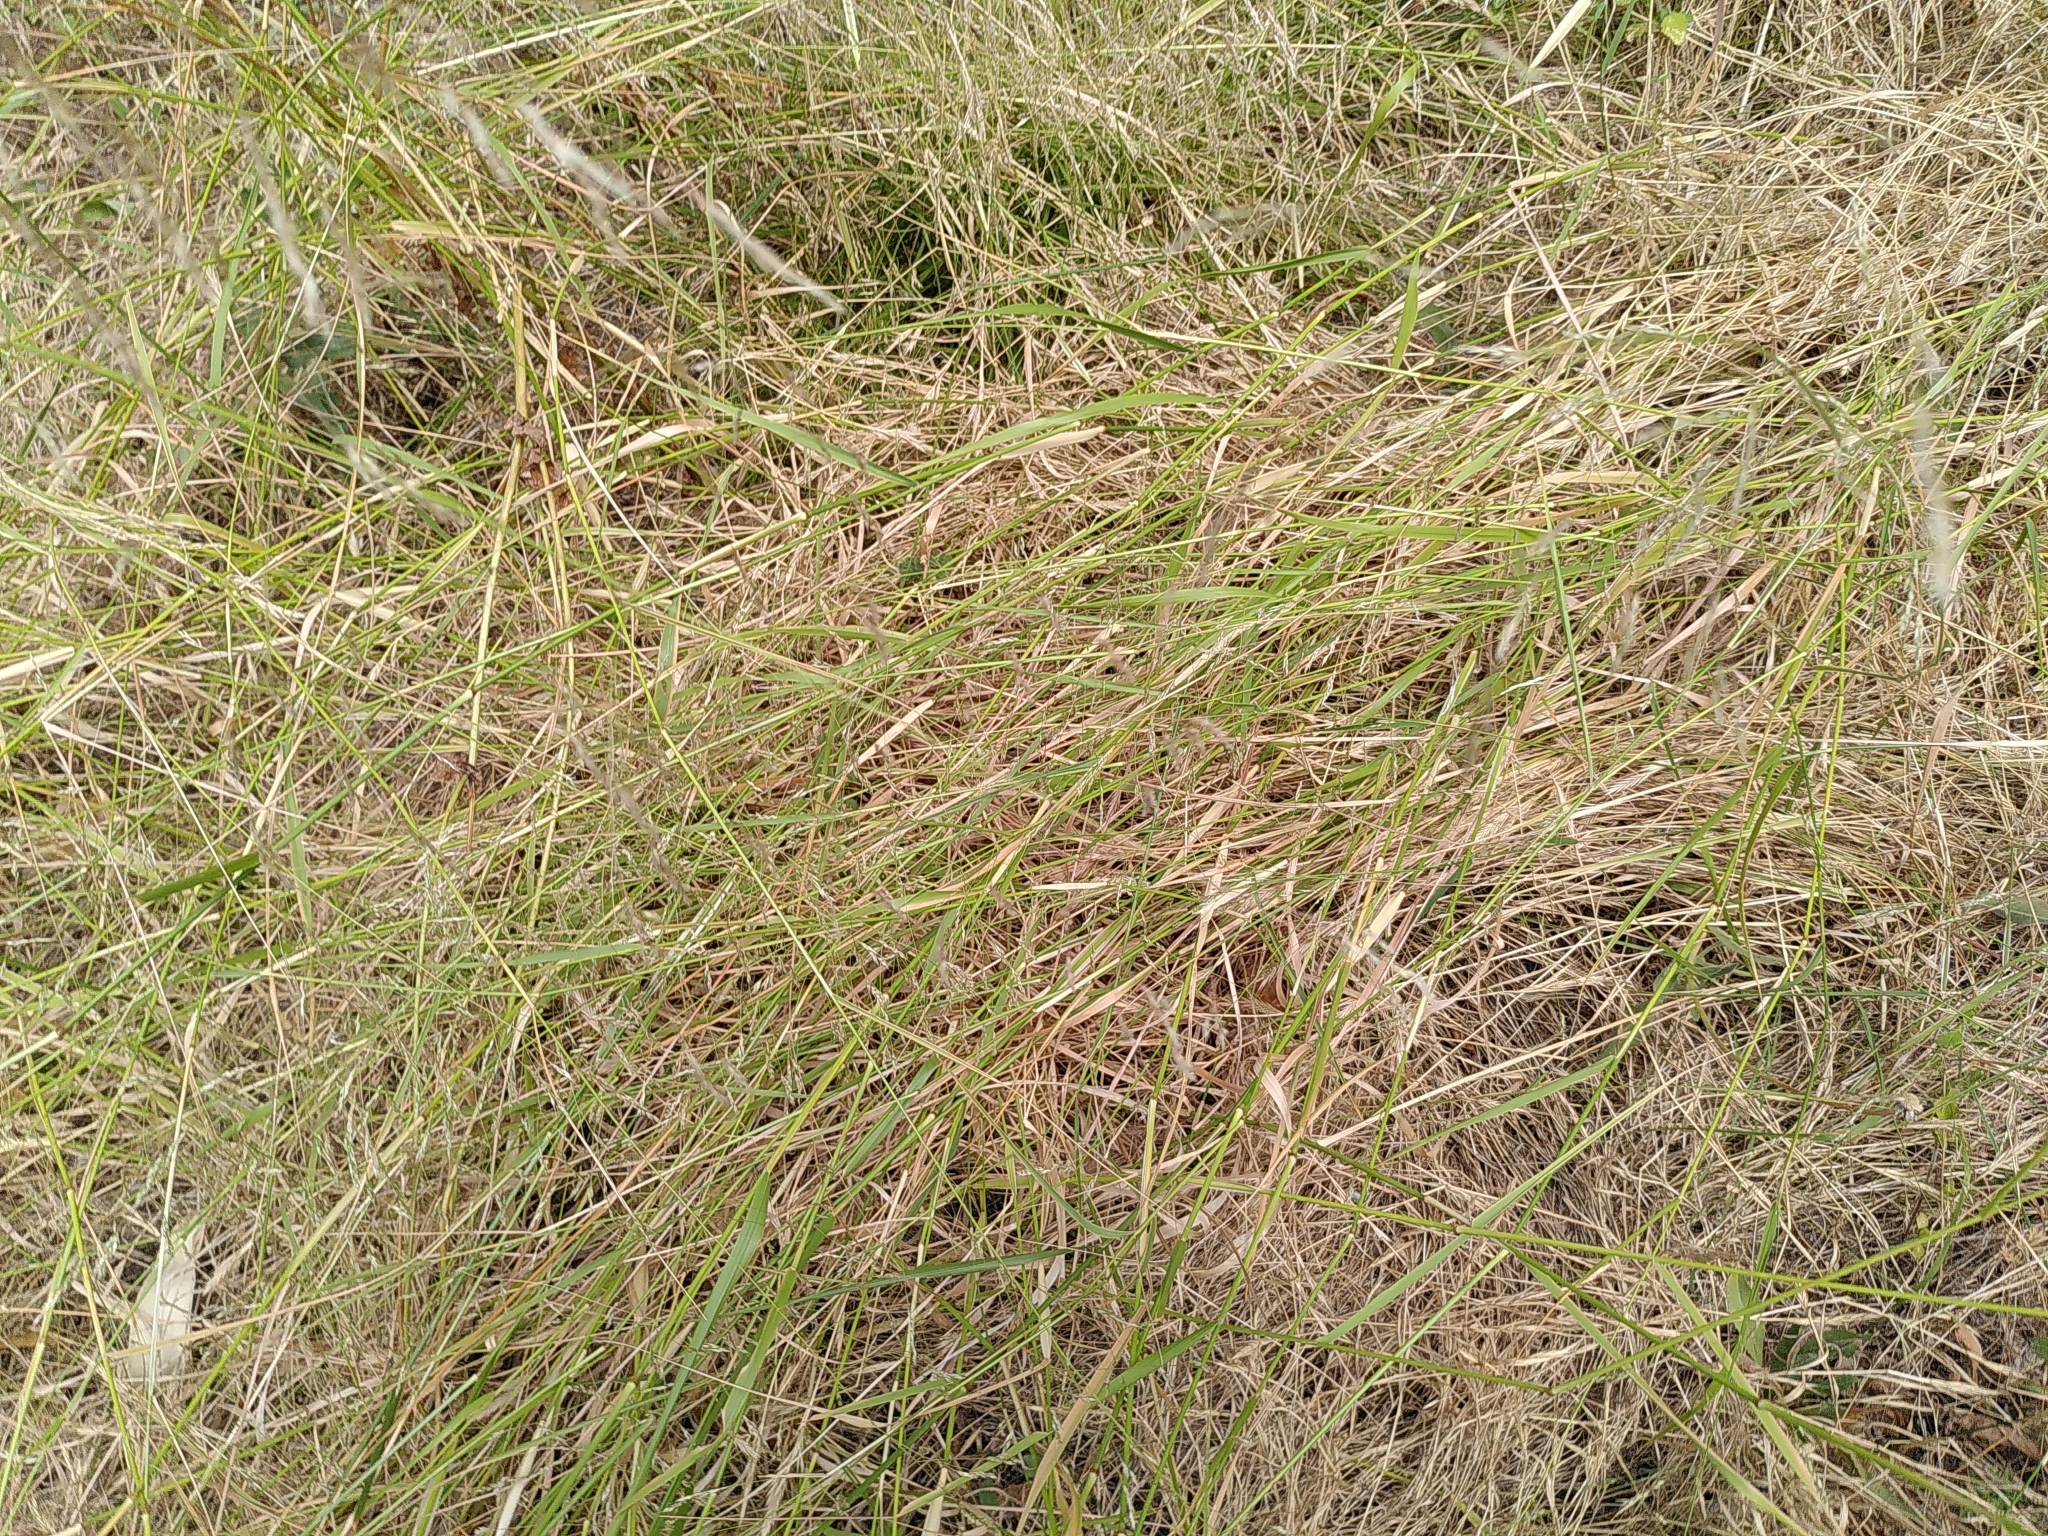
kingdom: Plantae
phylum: Tracheophyta
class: Liliopsida
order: Poales
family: Poaceae
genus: Oloptum
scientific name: Oloptum miliaceum
